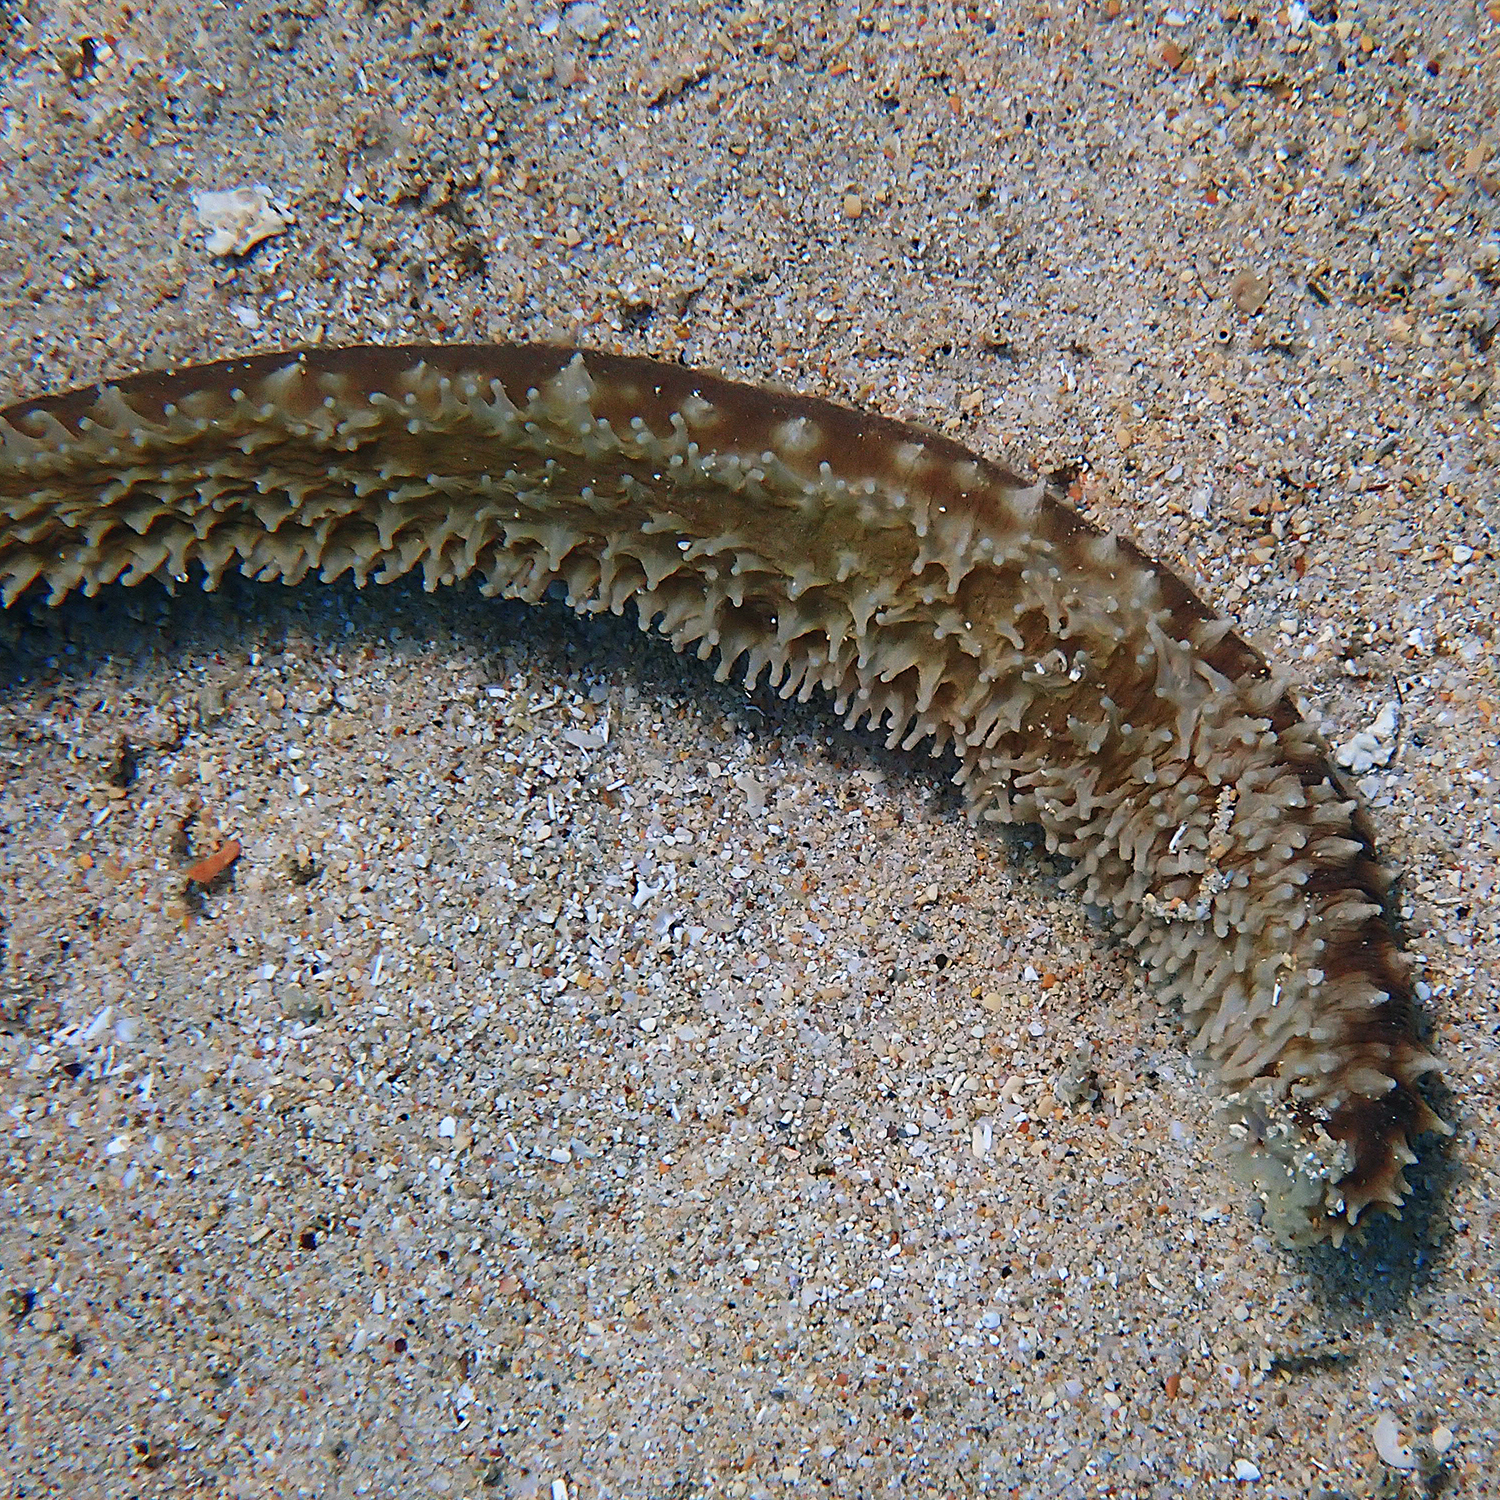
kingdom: Animalia
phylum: Echinodermata
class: Holothuroidea
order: Holothuriida
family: Holothuriidae
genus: Holothuria
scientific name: Holothuria hilla
